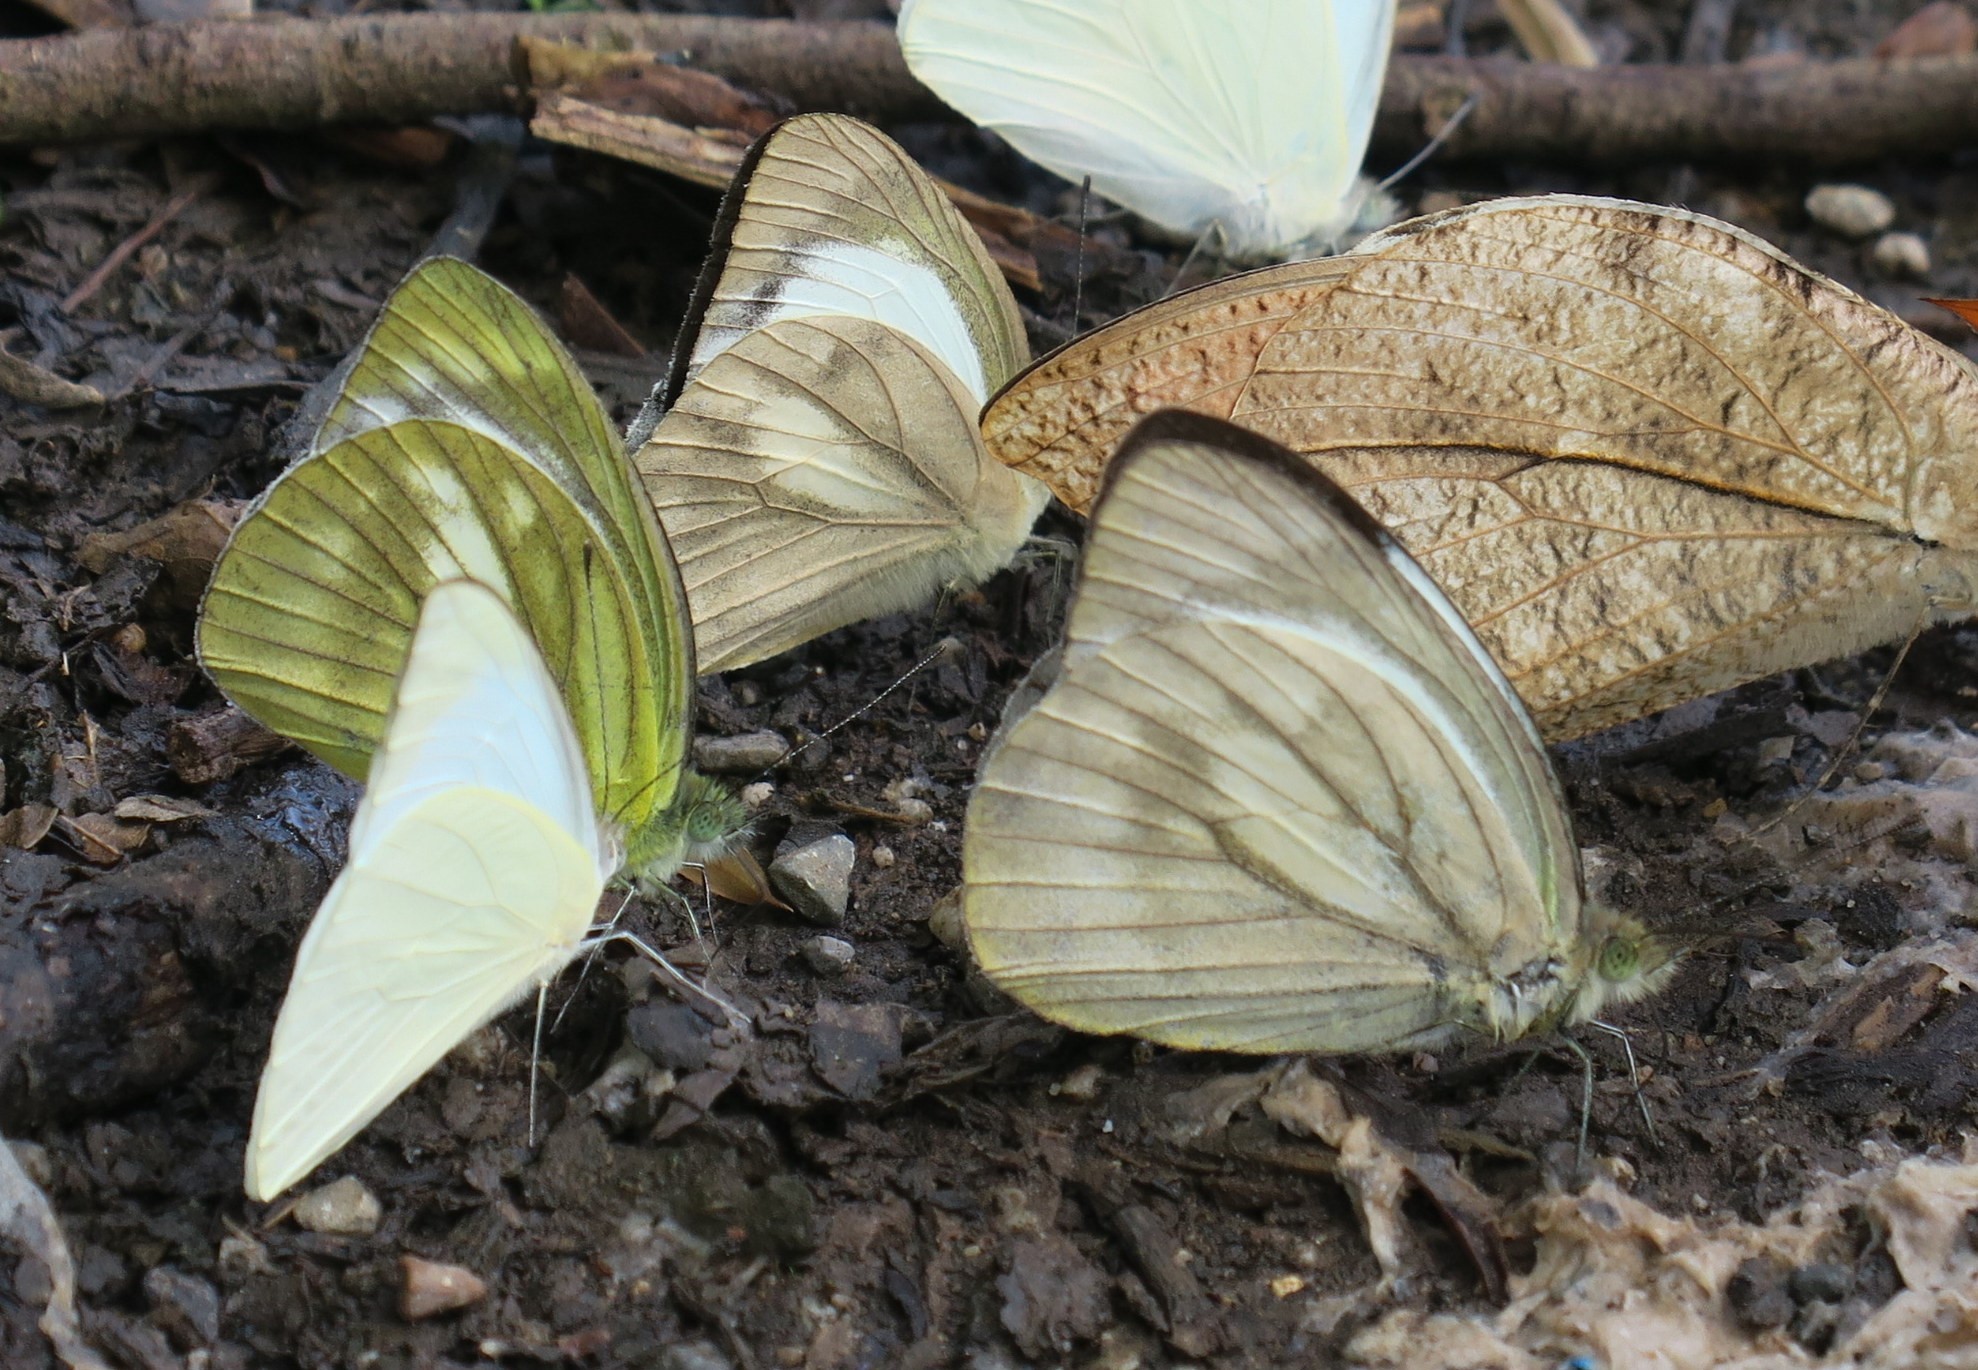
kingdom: Animalia
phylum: Arthropoda
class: Insecta
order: Lepidoptera
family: Pieridae
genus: Cepora
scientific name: Cepora nadina
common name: Lesser gull
